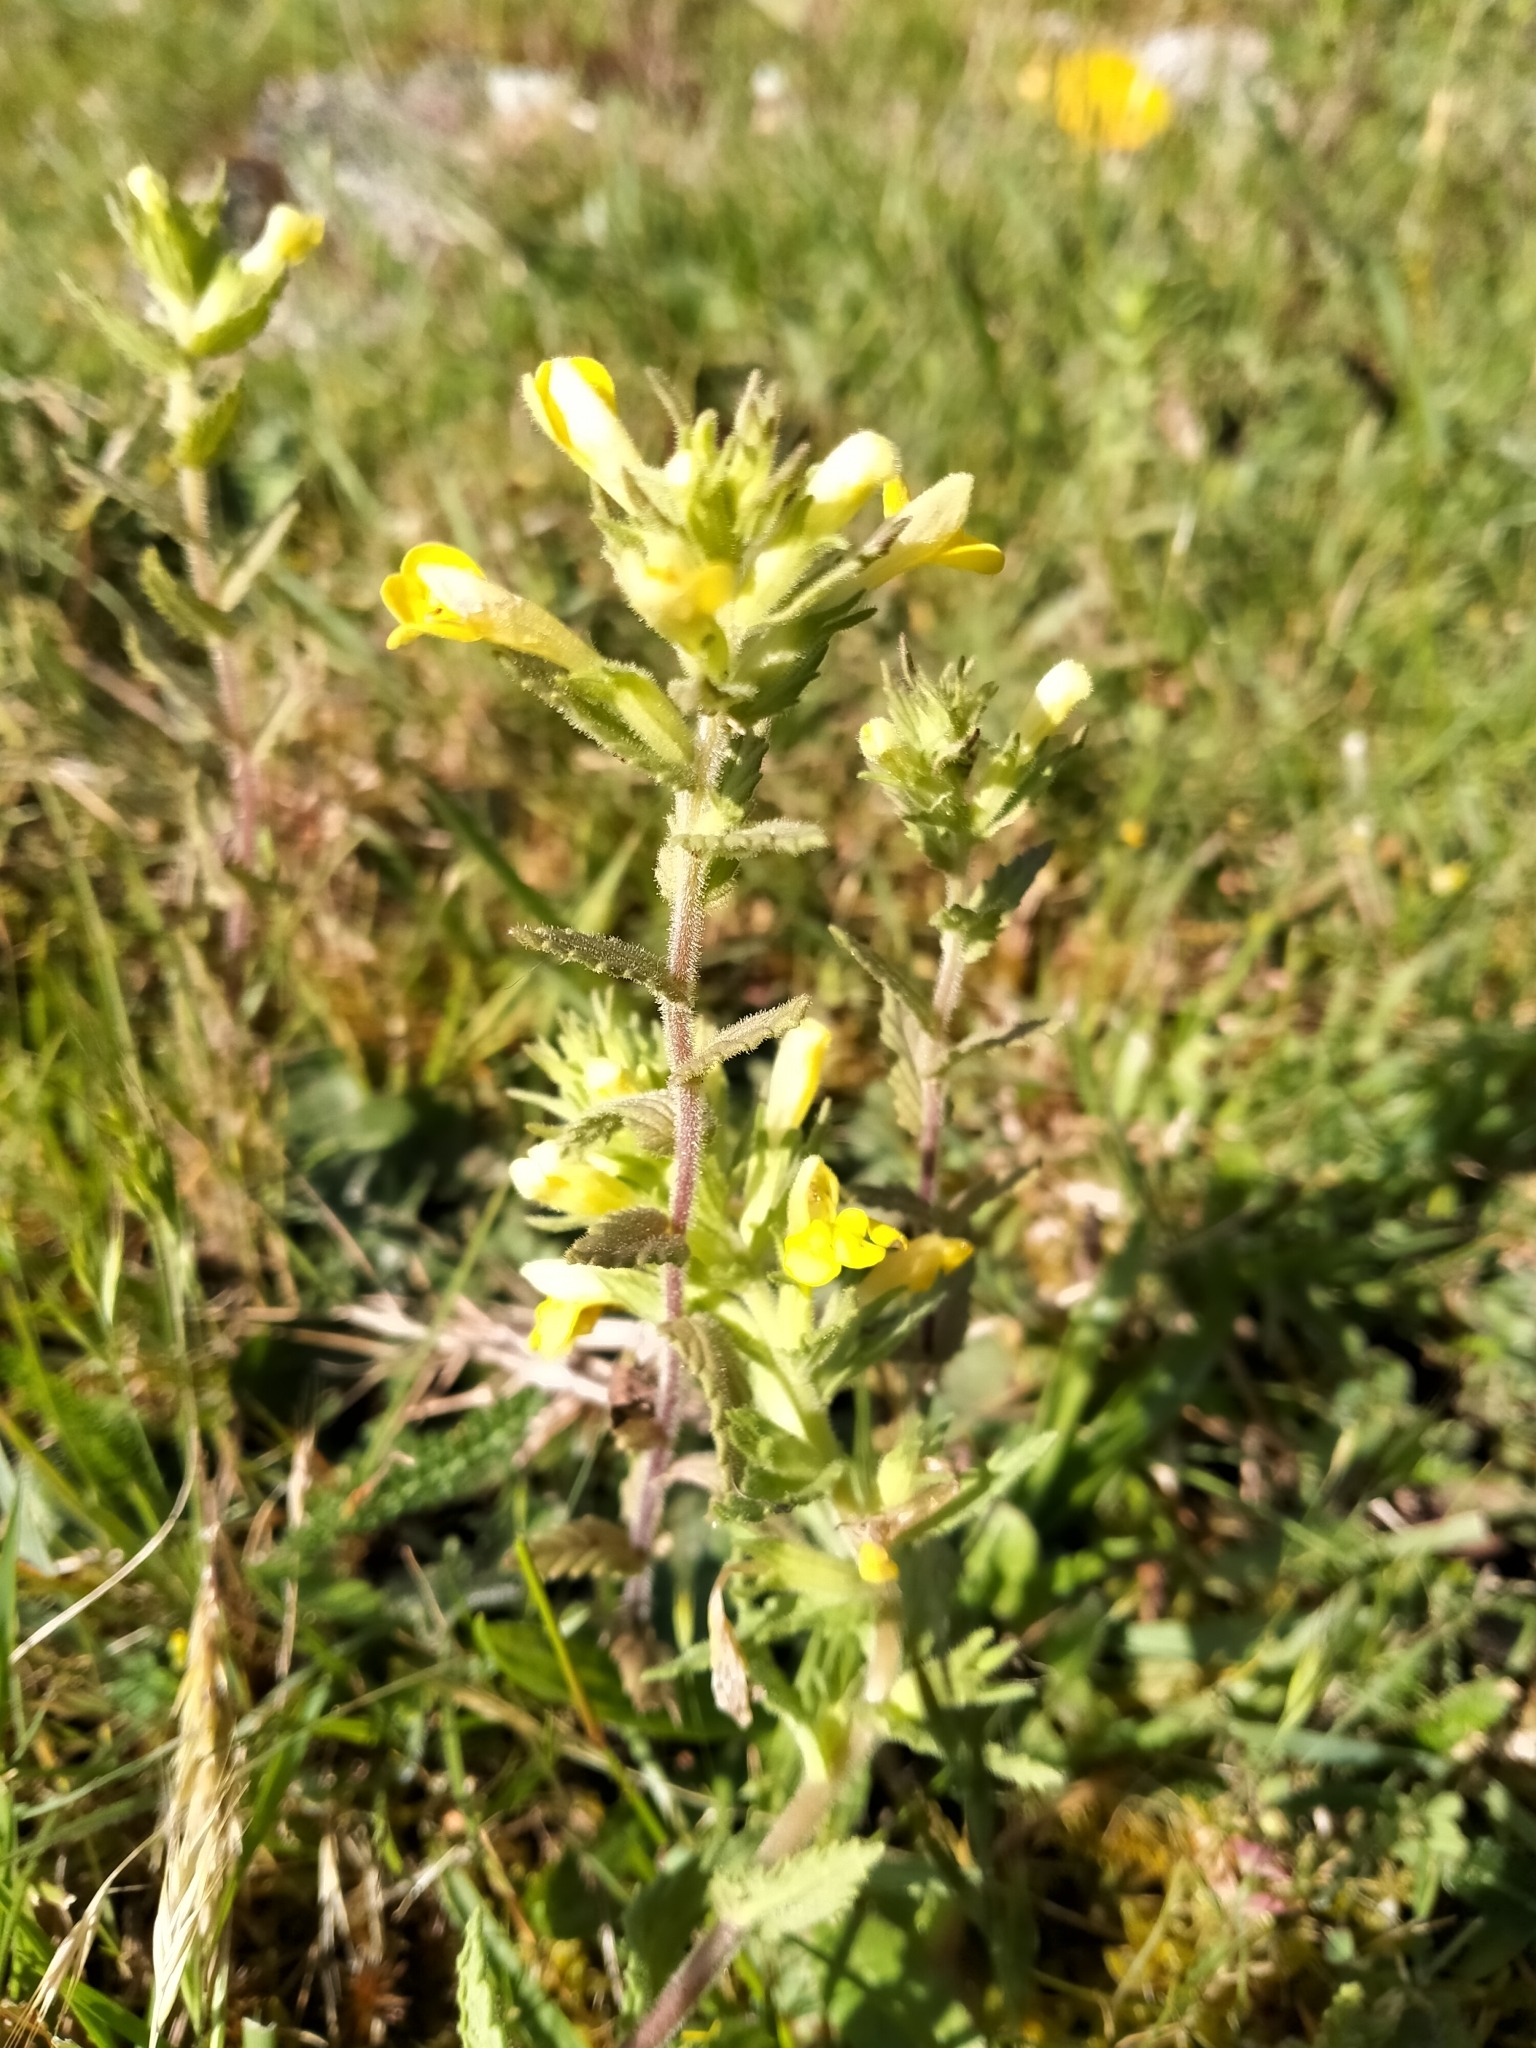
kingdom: Plantae
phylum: Tracheophyta
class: Magnoliopsida
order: Lamiales
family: Orobanchaceae
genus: Bellardia
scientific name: Bellardia viscosa
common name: Sticky parentucellia
